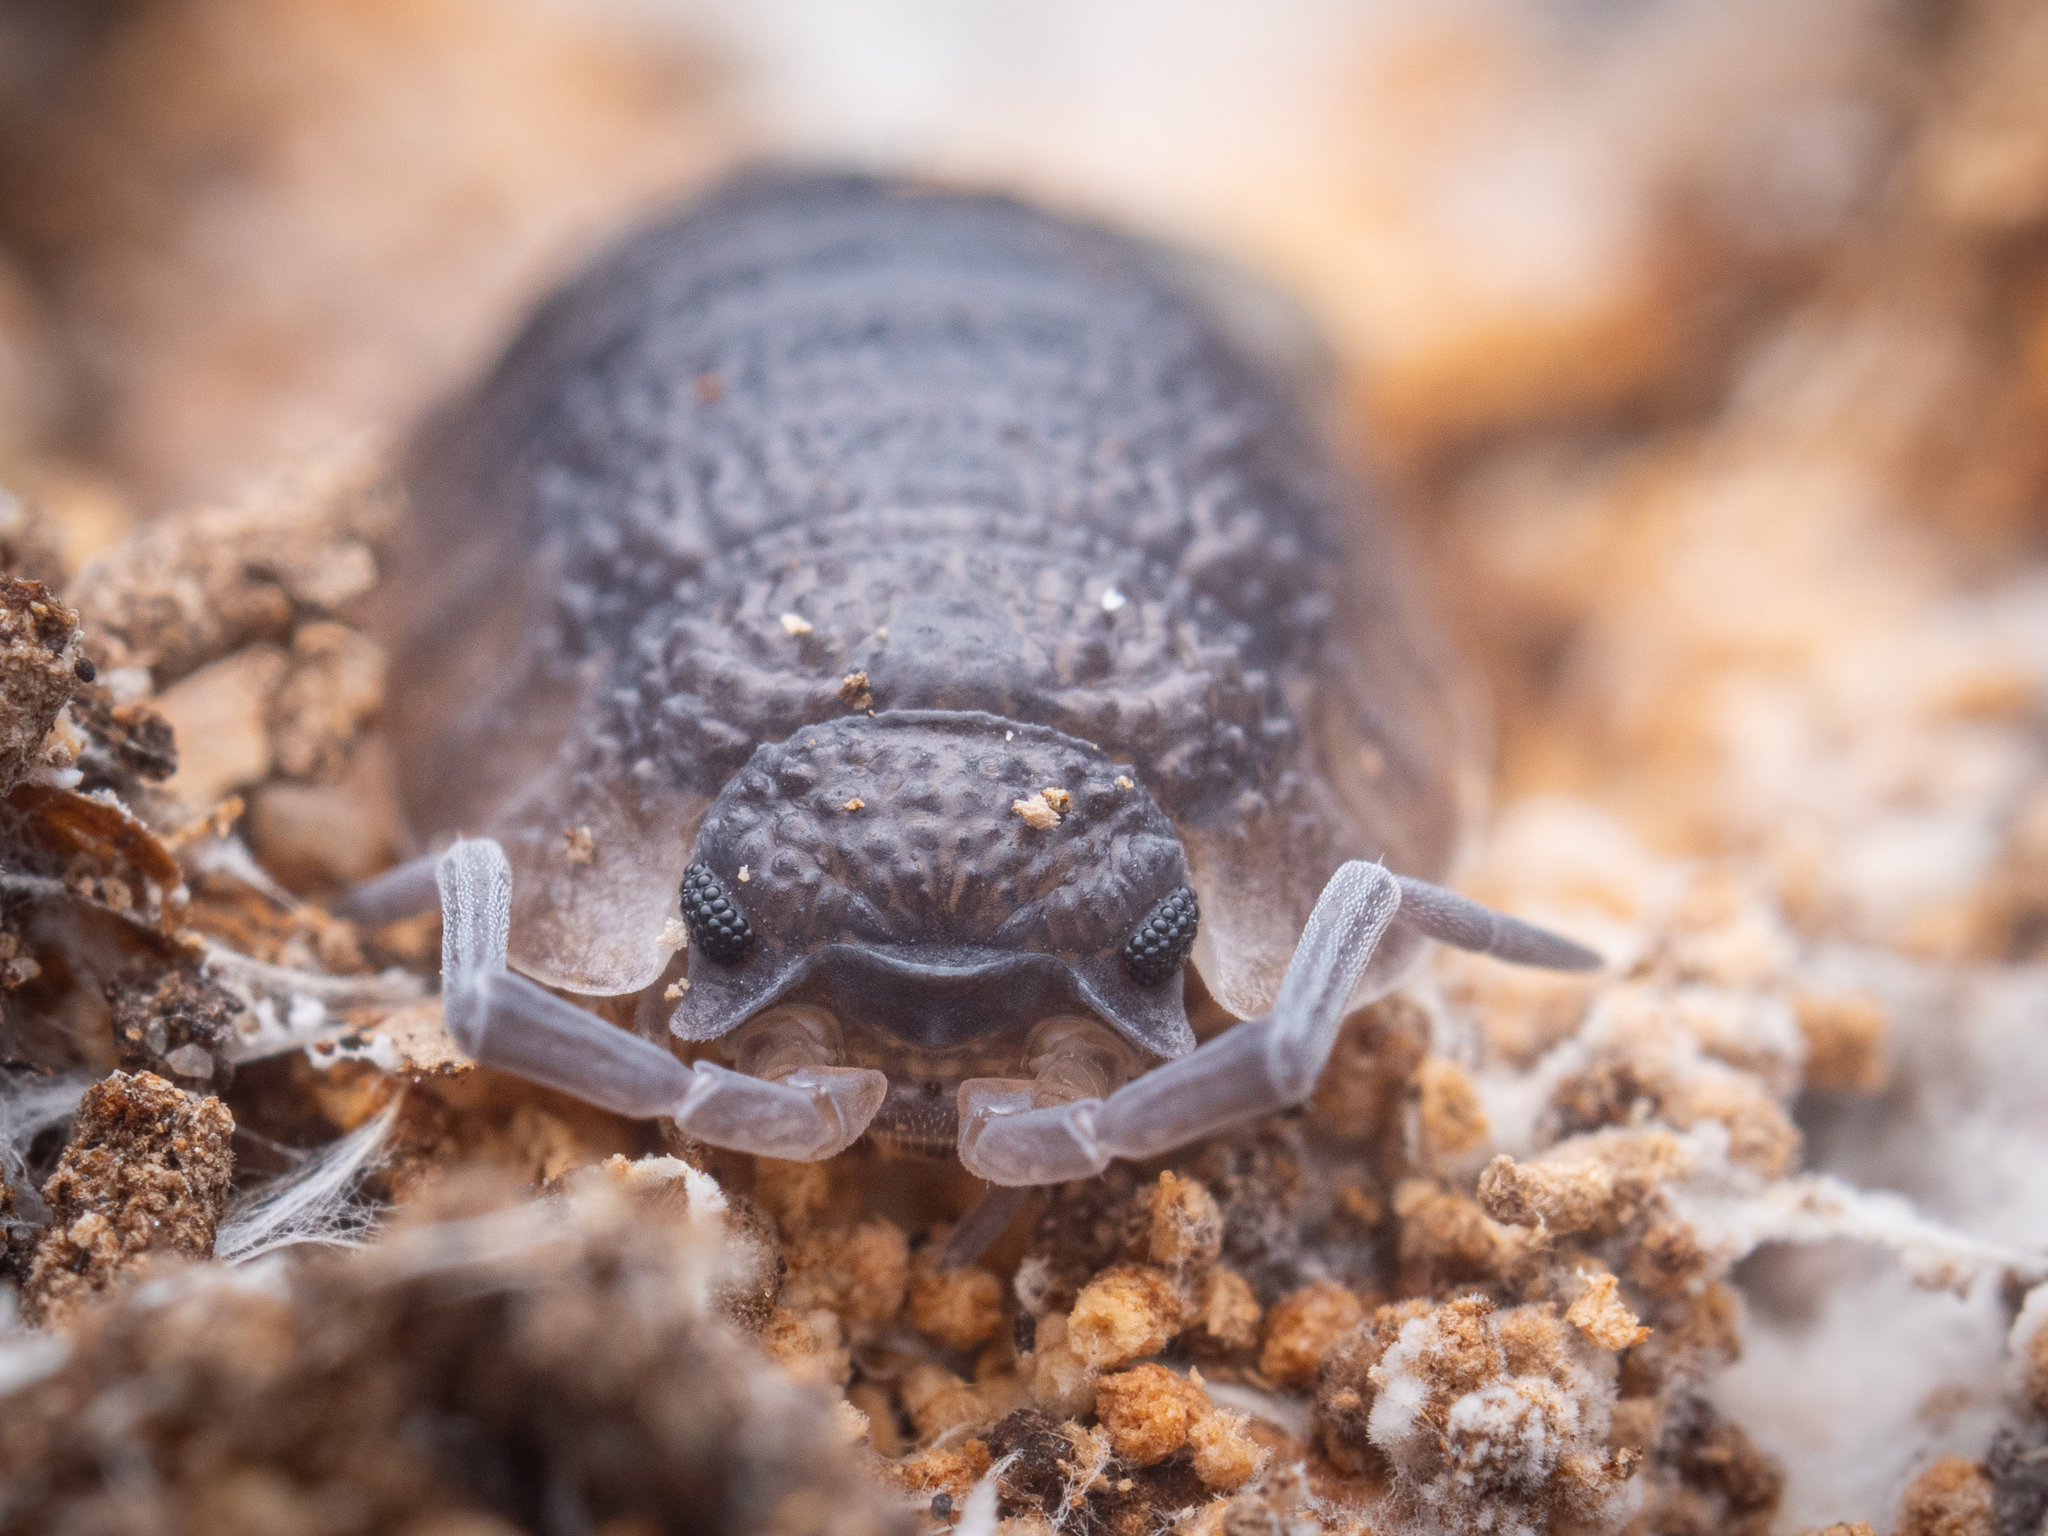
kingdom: Animalia
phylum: Arthropoda
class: Malacostraca
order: Isopoda
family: Porcellionidae
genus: Porcellio
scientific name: Porcellio scaber
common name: Common rough woodlouse
